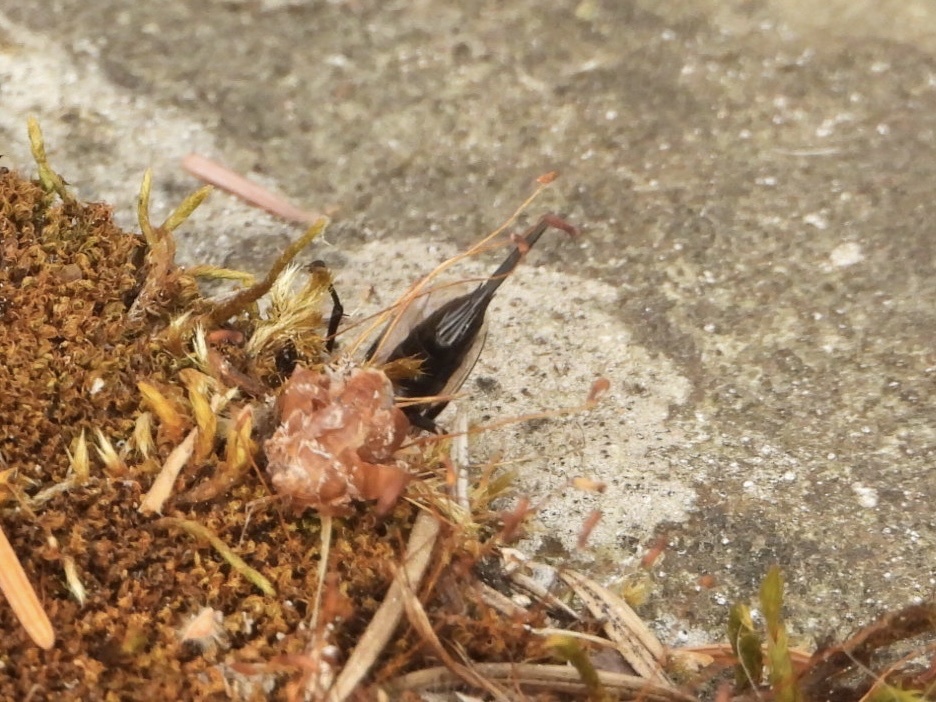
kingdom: Animalia
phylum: Arthropoda
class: Insecta
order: Hymenoptera
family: Ichneumonidae
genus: Pimpla
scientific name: Pimpla pedalis
